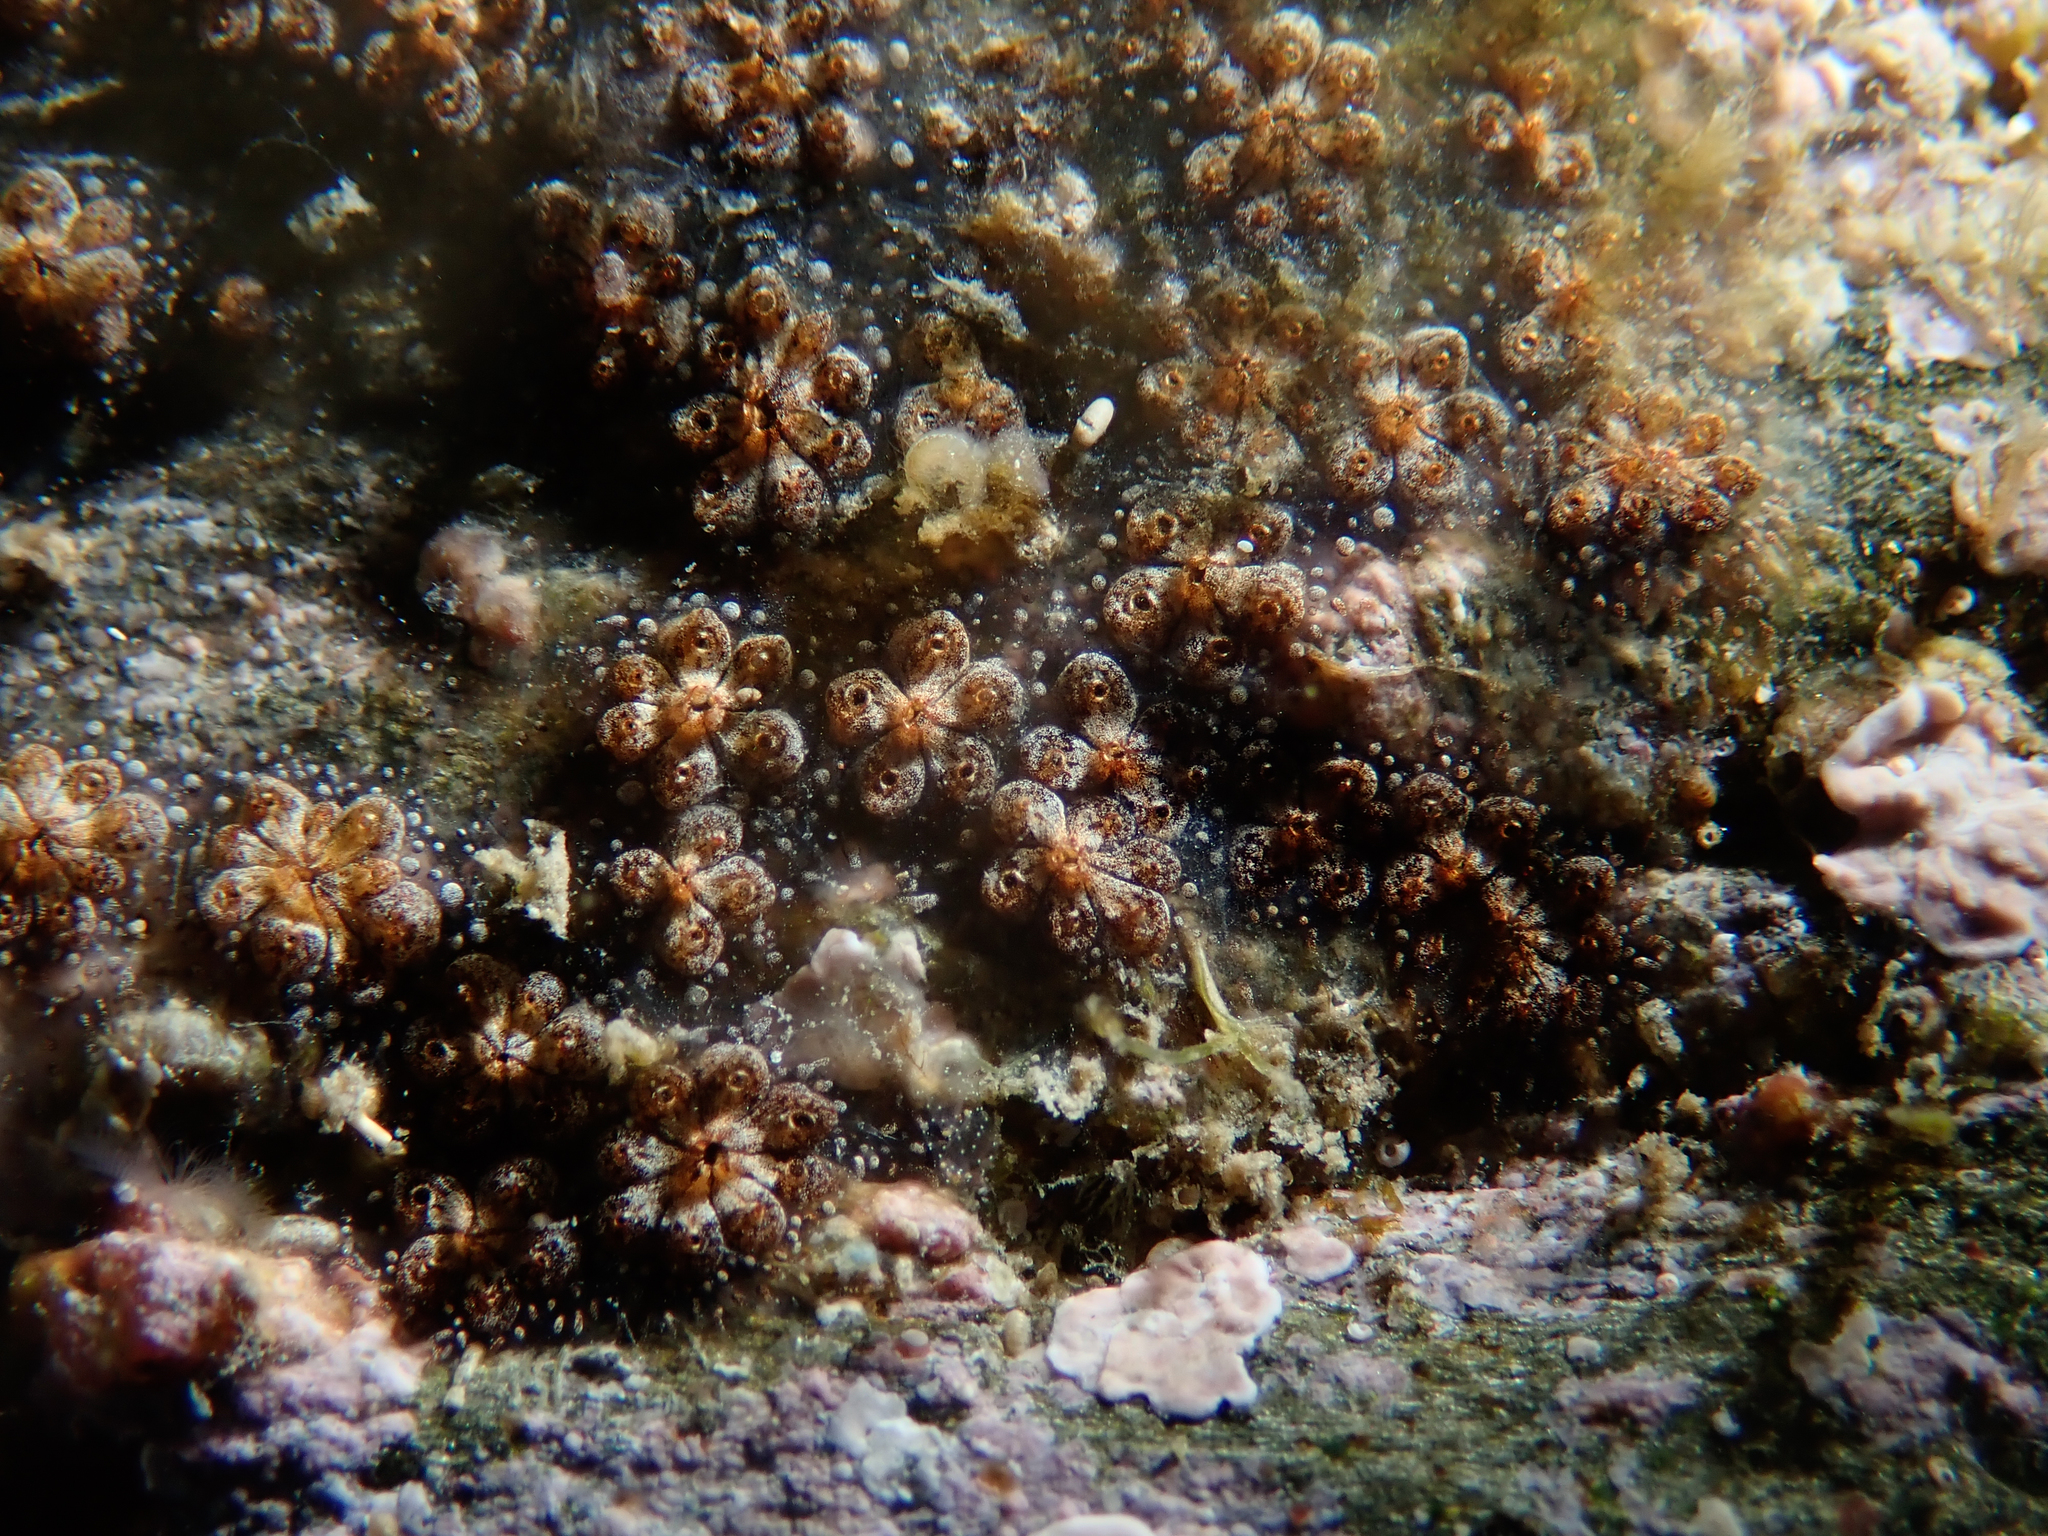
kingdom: Animalia
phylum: Chordata
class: Ascidiacea
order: Stolidobranchia
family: Styelidae
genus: Botryllus
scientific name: Botryllus schlosseri
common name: Golden star tunicate
